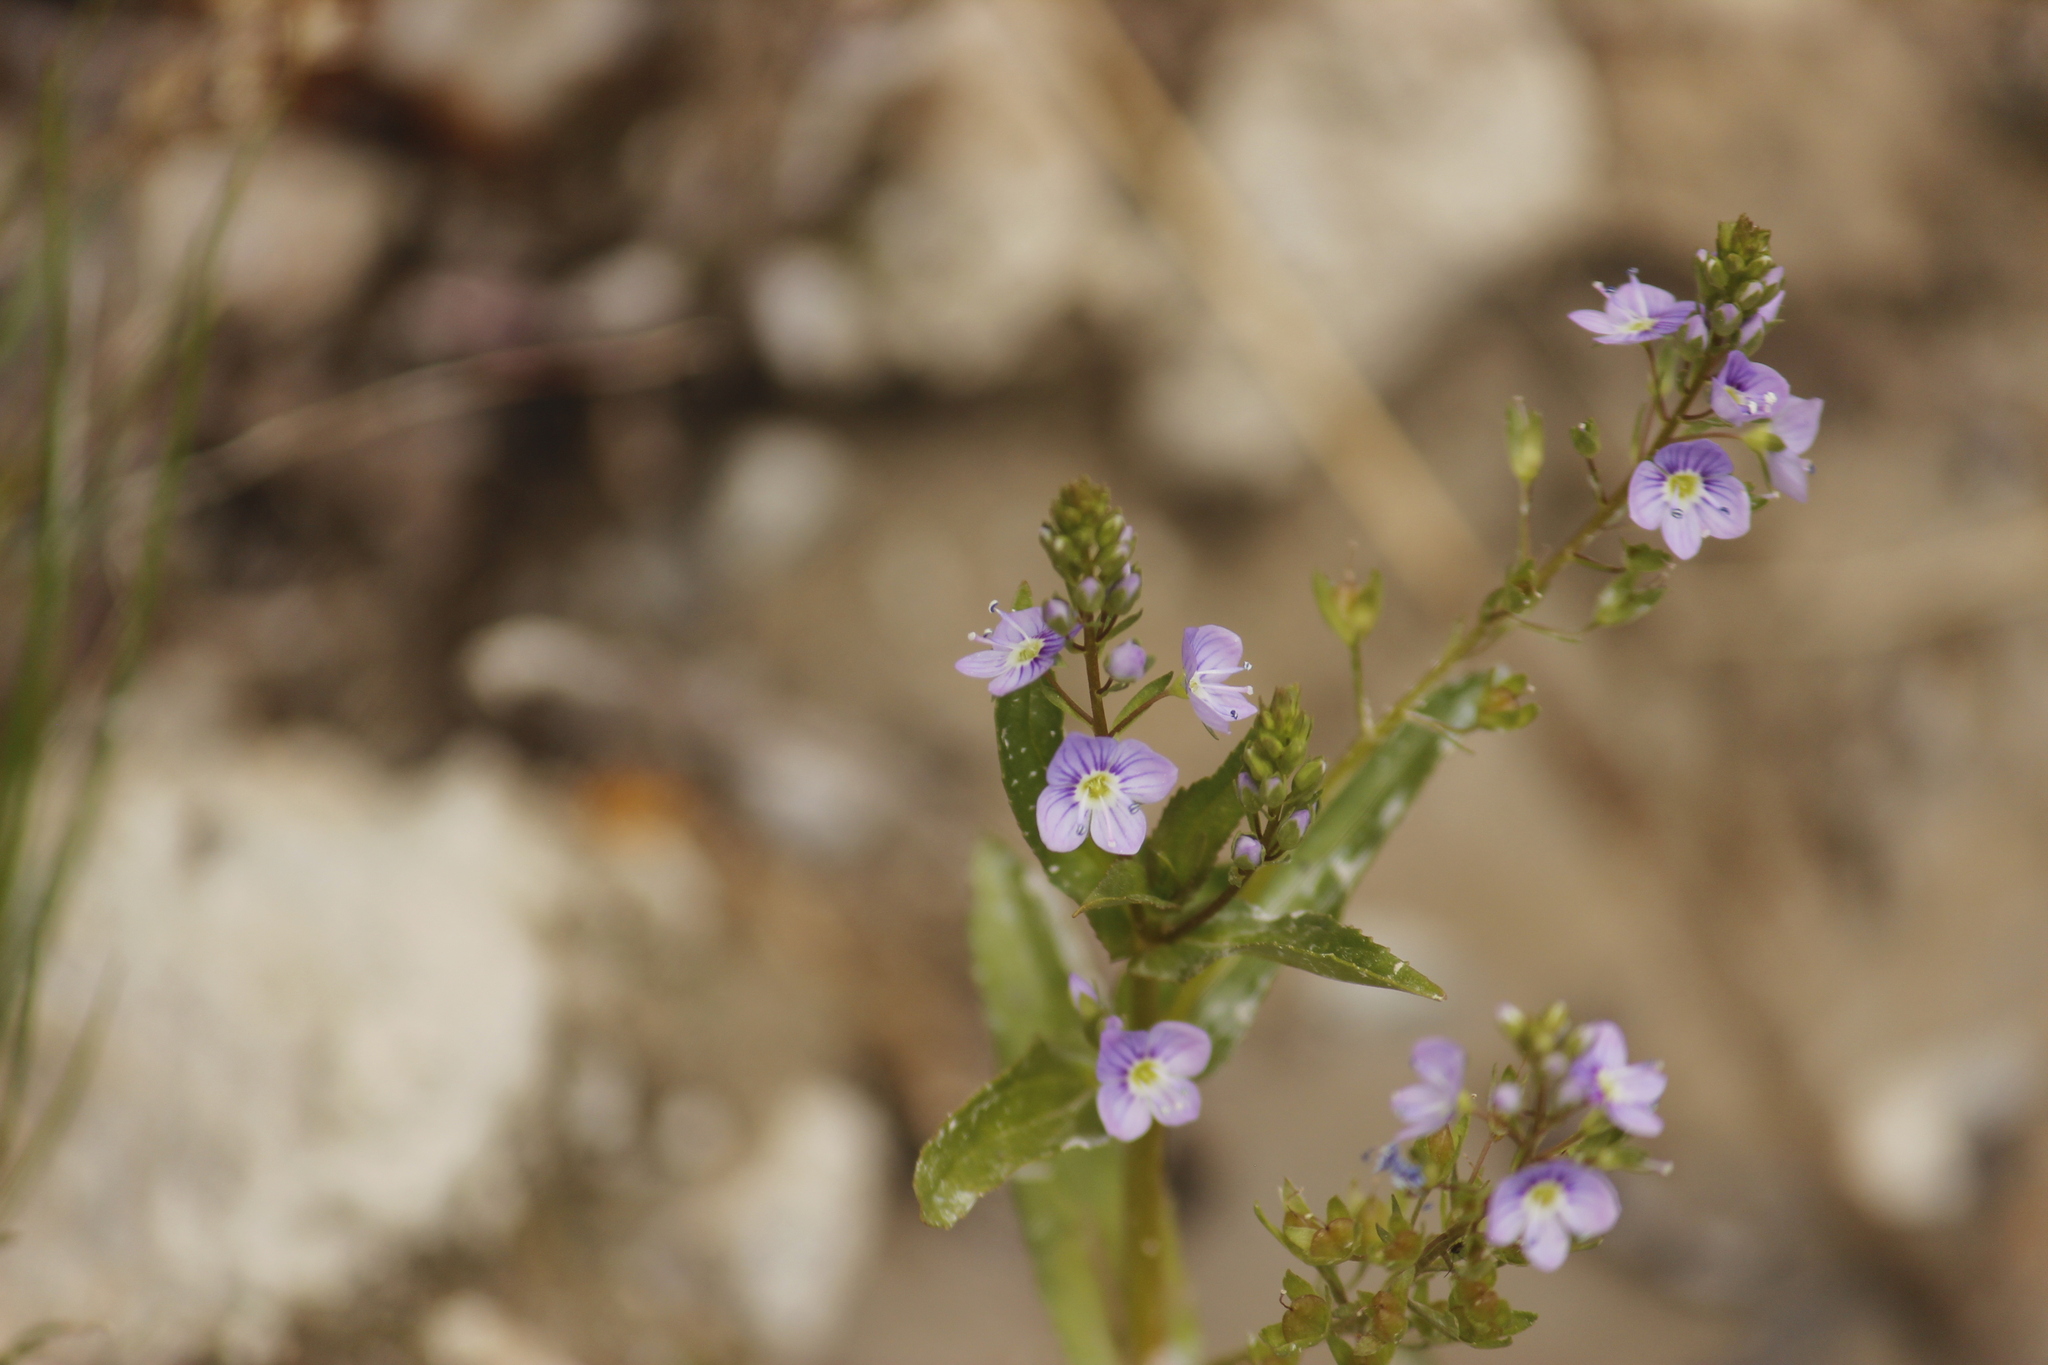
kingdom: Plantae
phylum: Tracheophyta
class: Magnoliopsida
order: Lamiales
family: Plantaginaceae
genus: Veronica
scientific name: Veronica anagallis-aquatica
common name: Water speedwell
